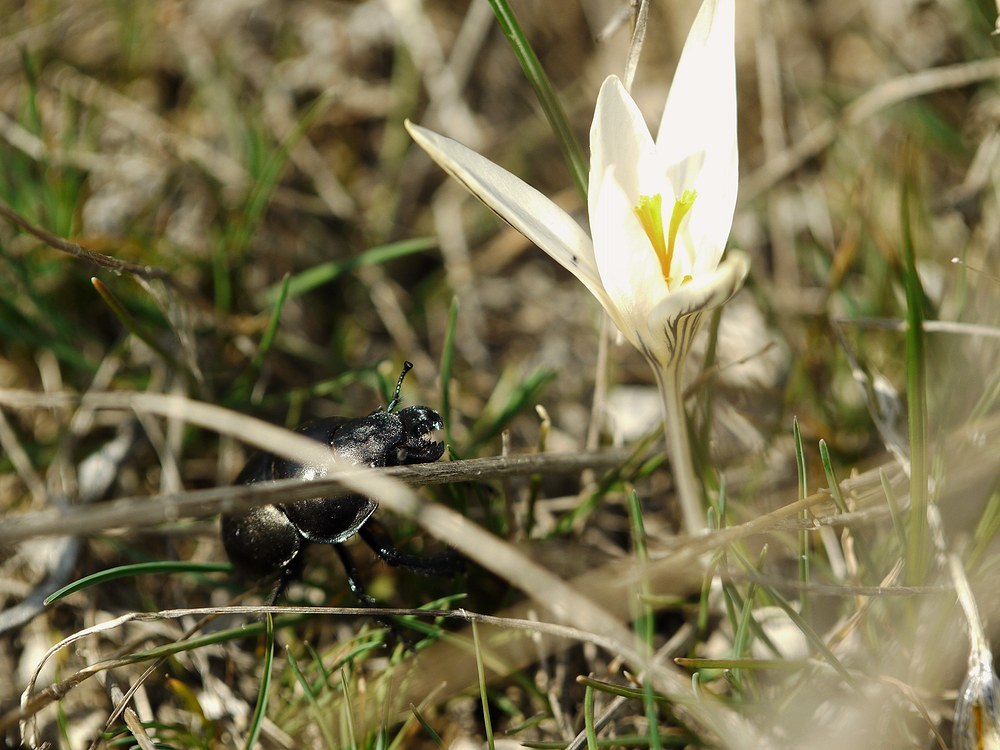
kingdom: Plantae
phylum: Tracheophyta
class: Liliopsida
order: Asparagales
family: Iridaceae
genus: Crocus
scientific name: Crocus reticulatus
